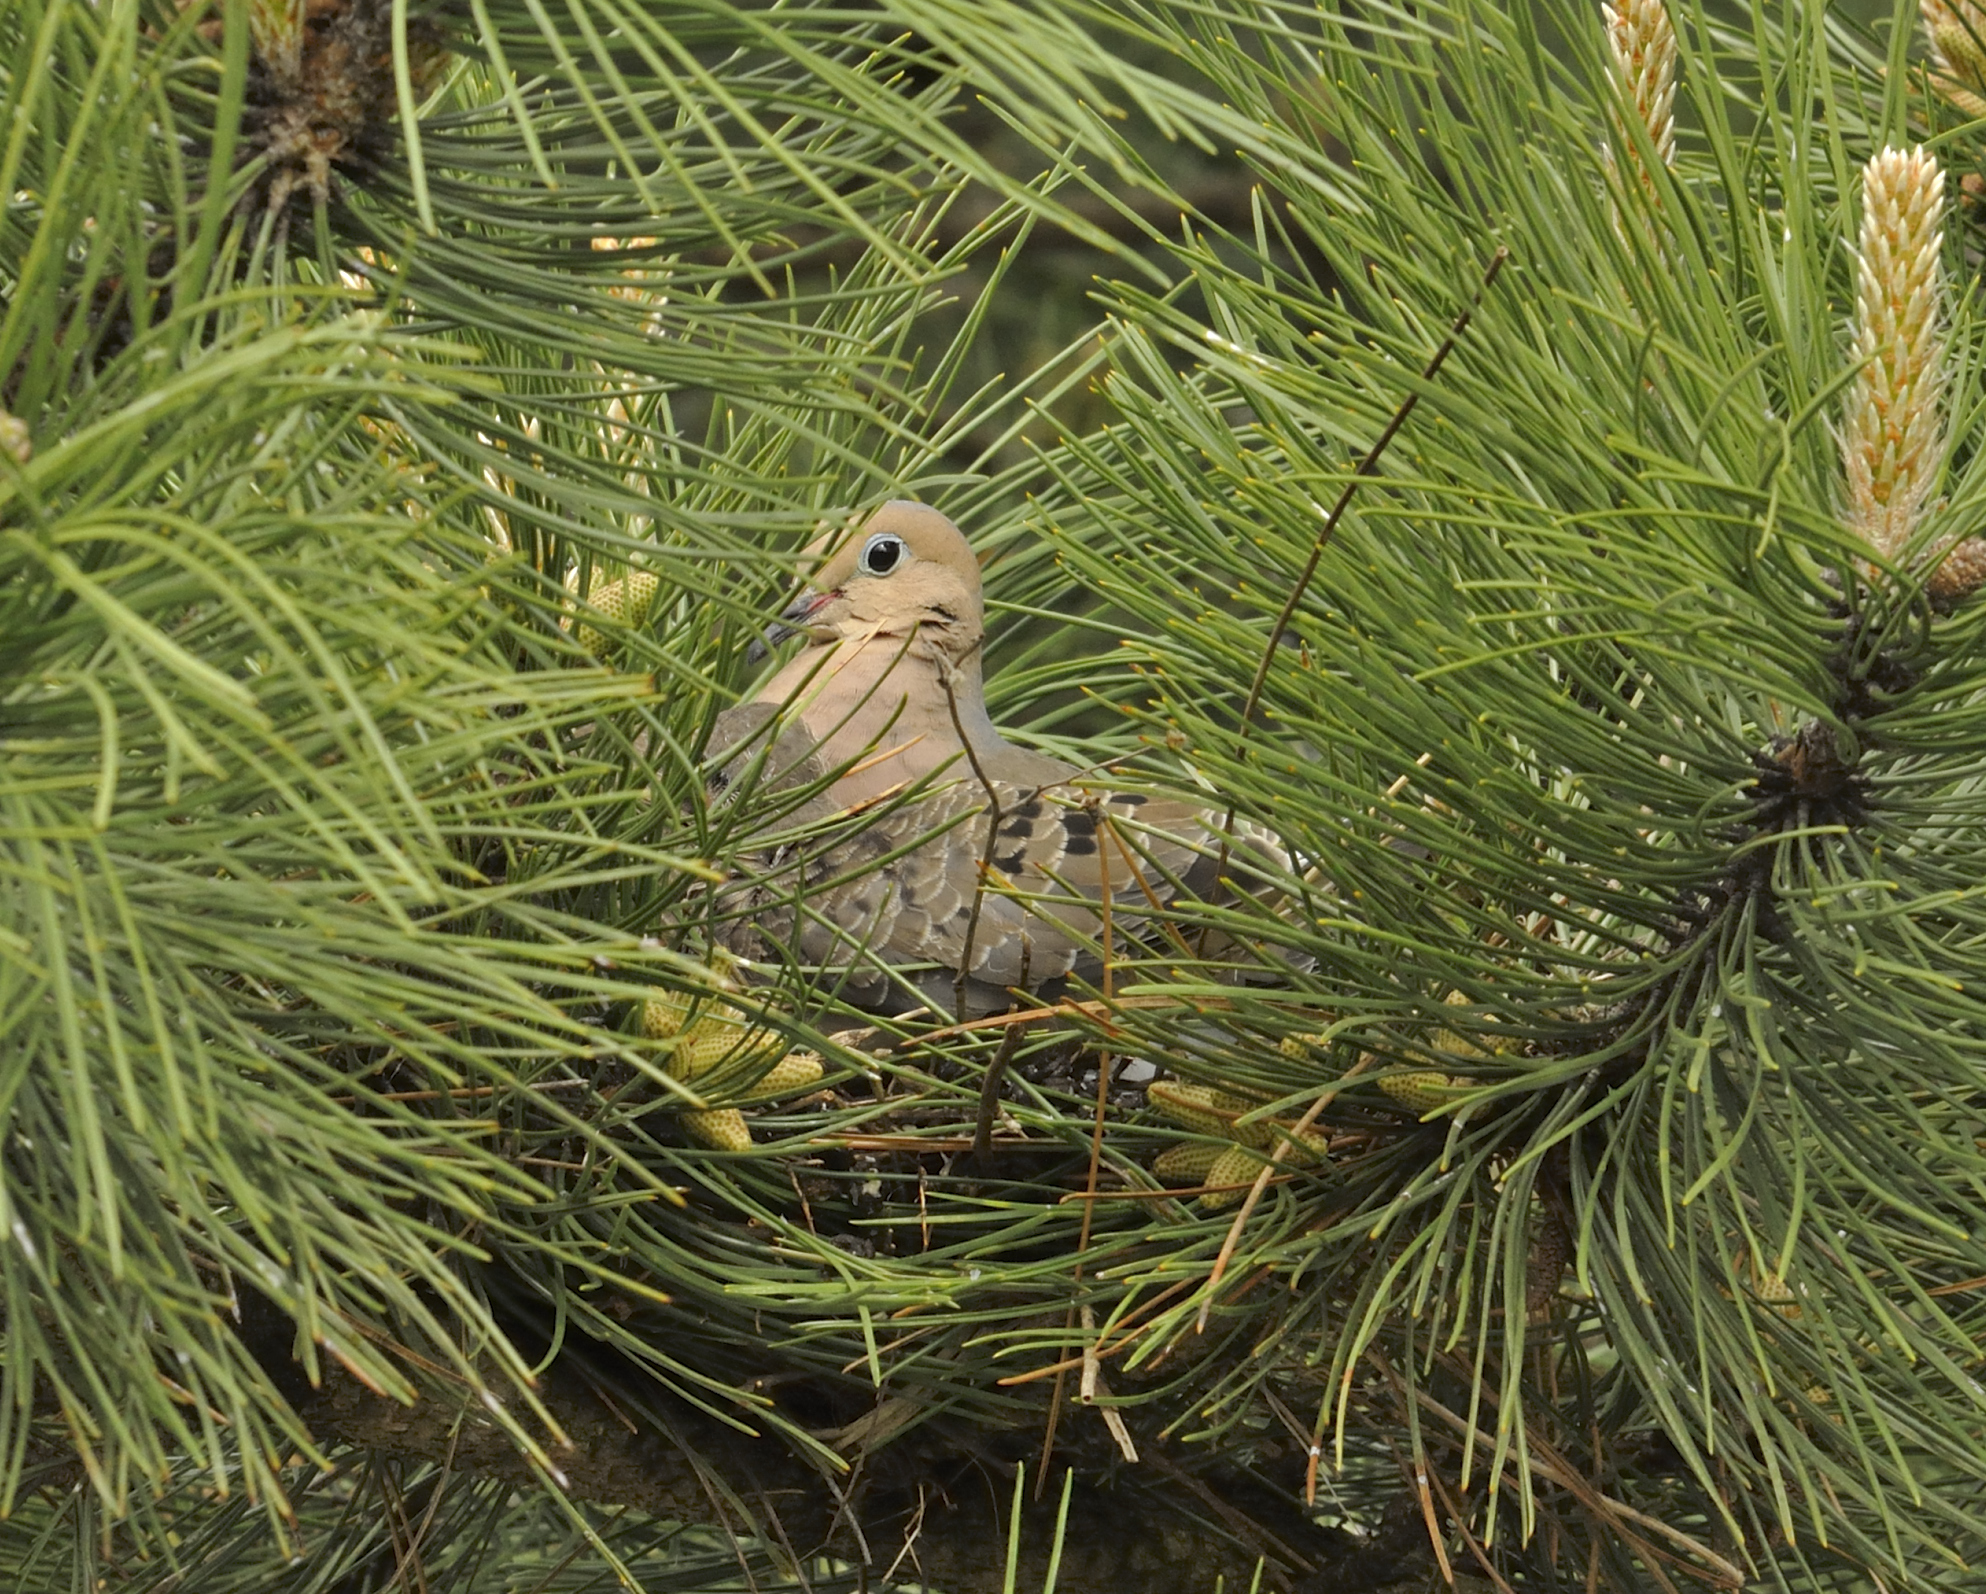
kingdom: Animalia
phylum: Chordata
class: Aves
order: Columbiformes
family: Columbidae
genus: Zenaida
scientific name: Zenaida macroura
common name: Mourning dove
